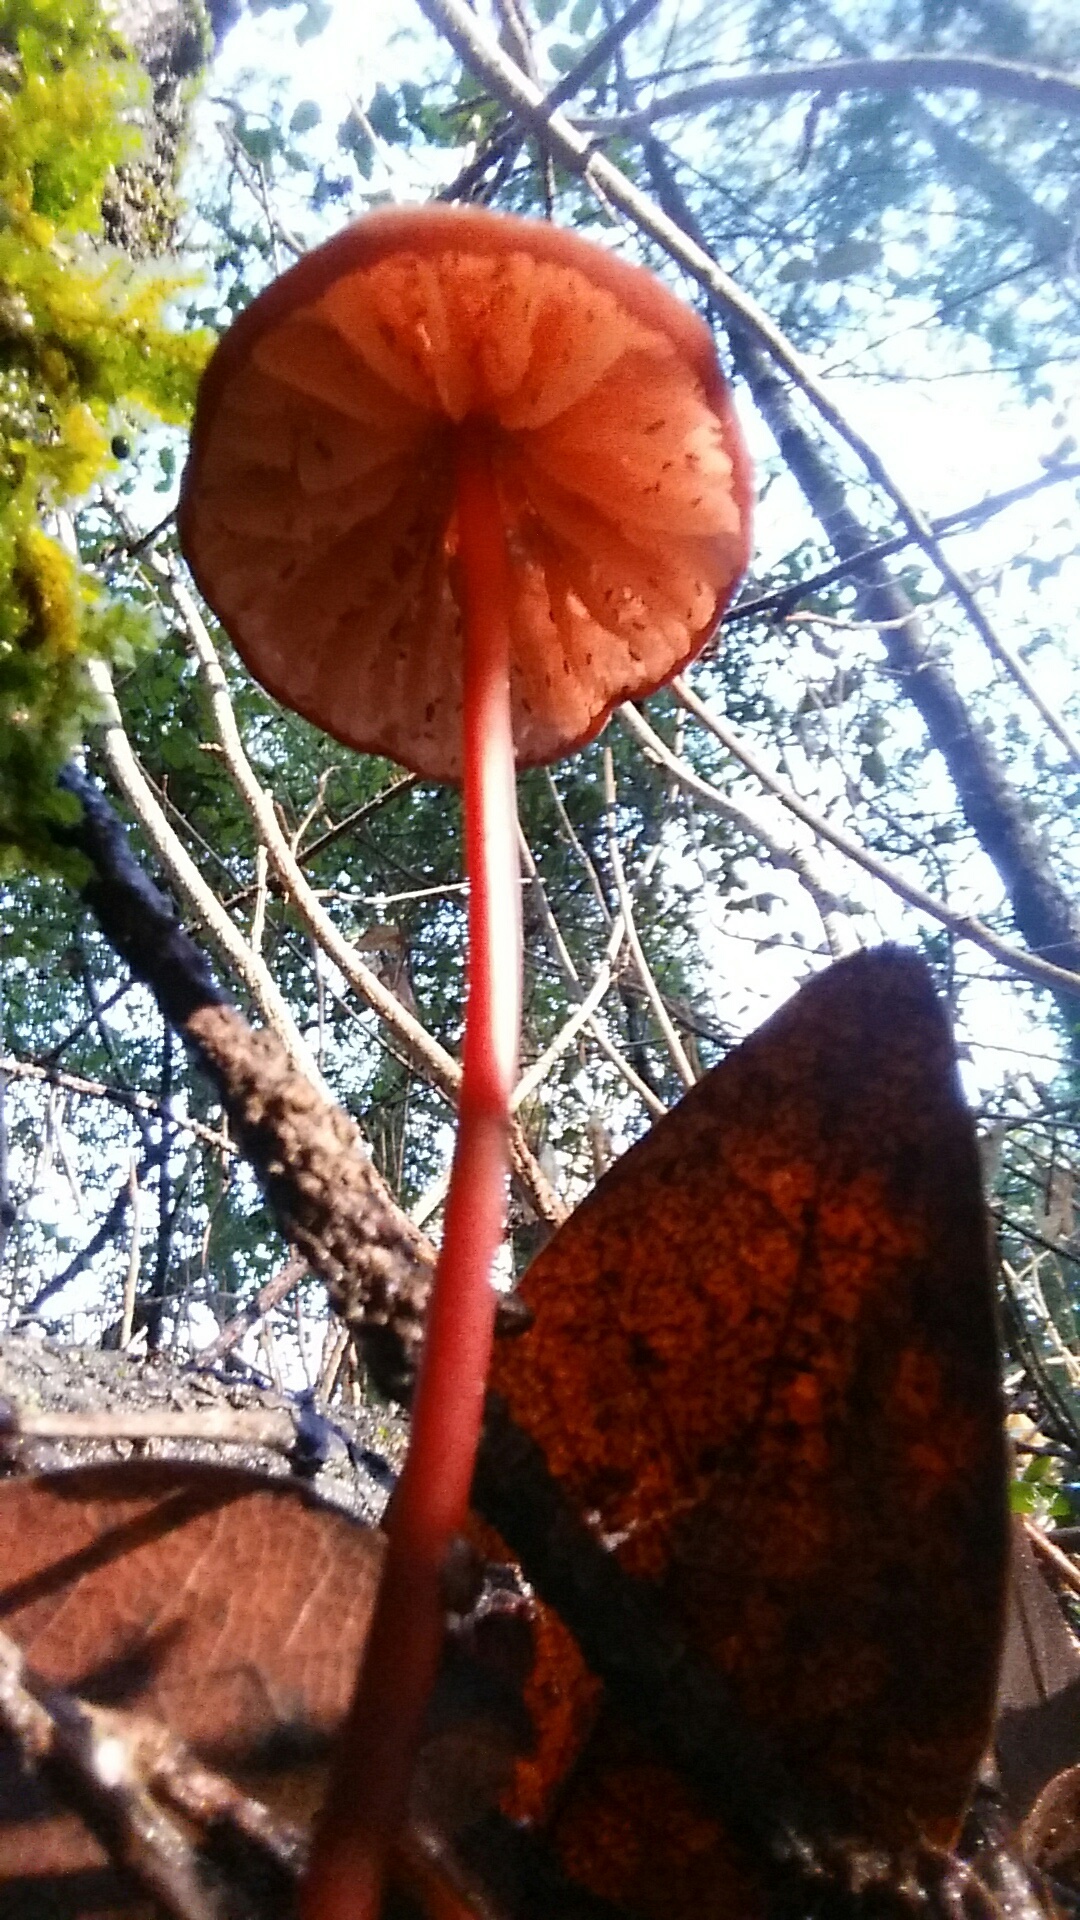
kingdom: Fungi
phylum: Basidiomycota
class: Agaricomycetes
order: Agaricales
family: Marasmiaceae
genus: Marasmius
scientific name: Marasmius plicatulus
